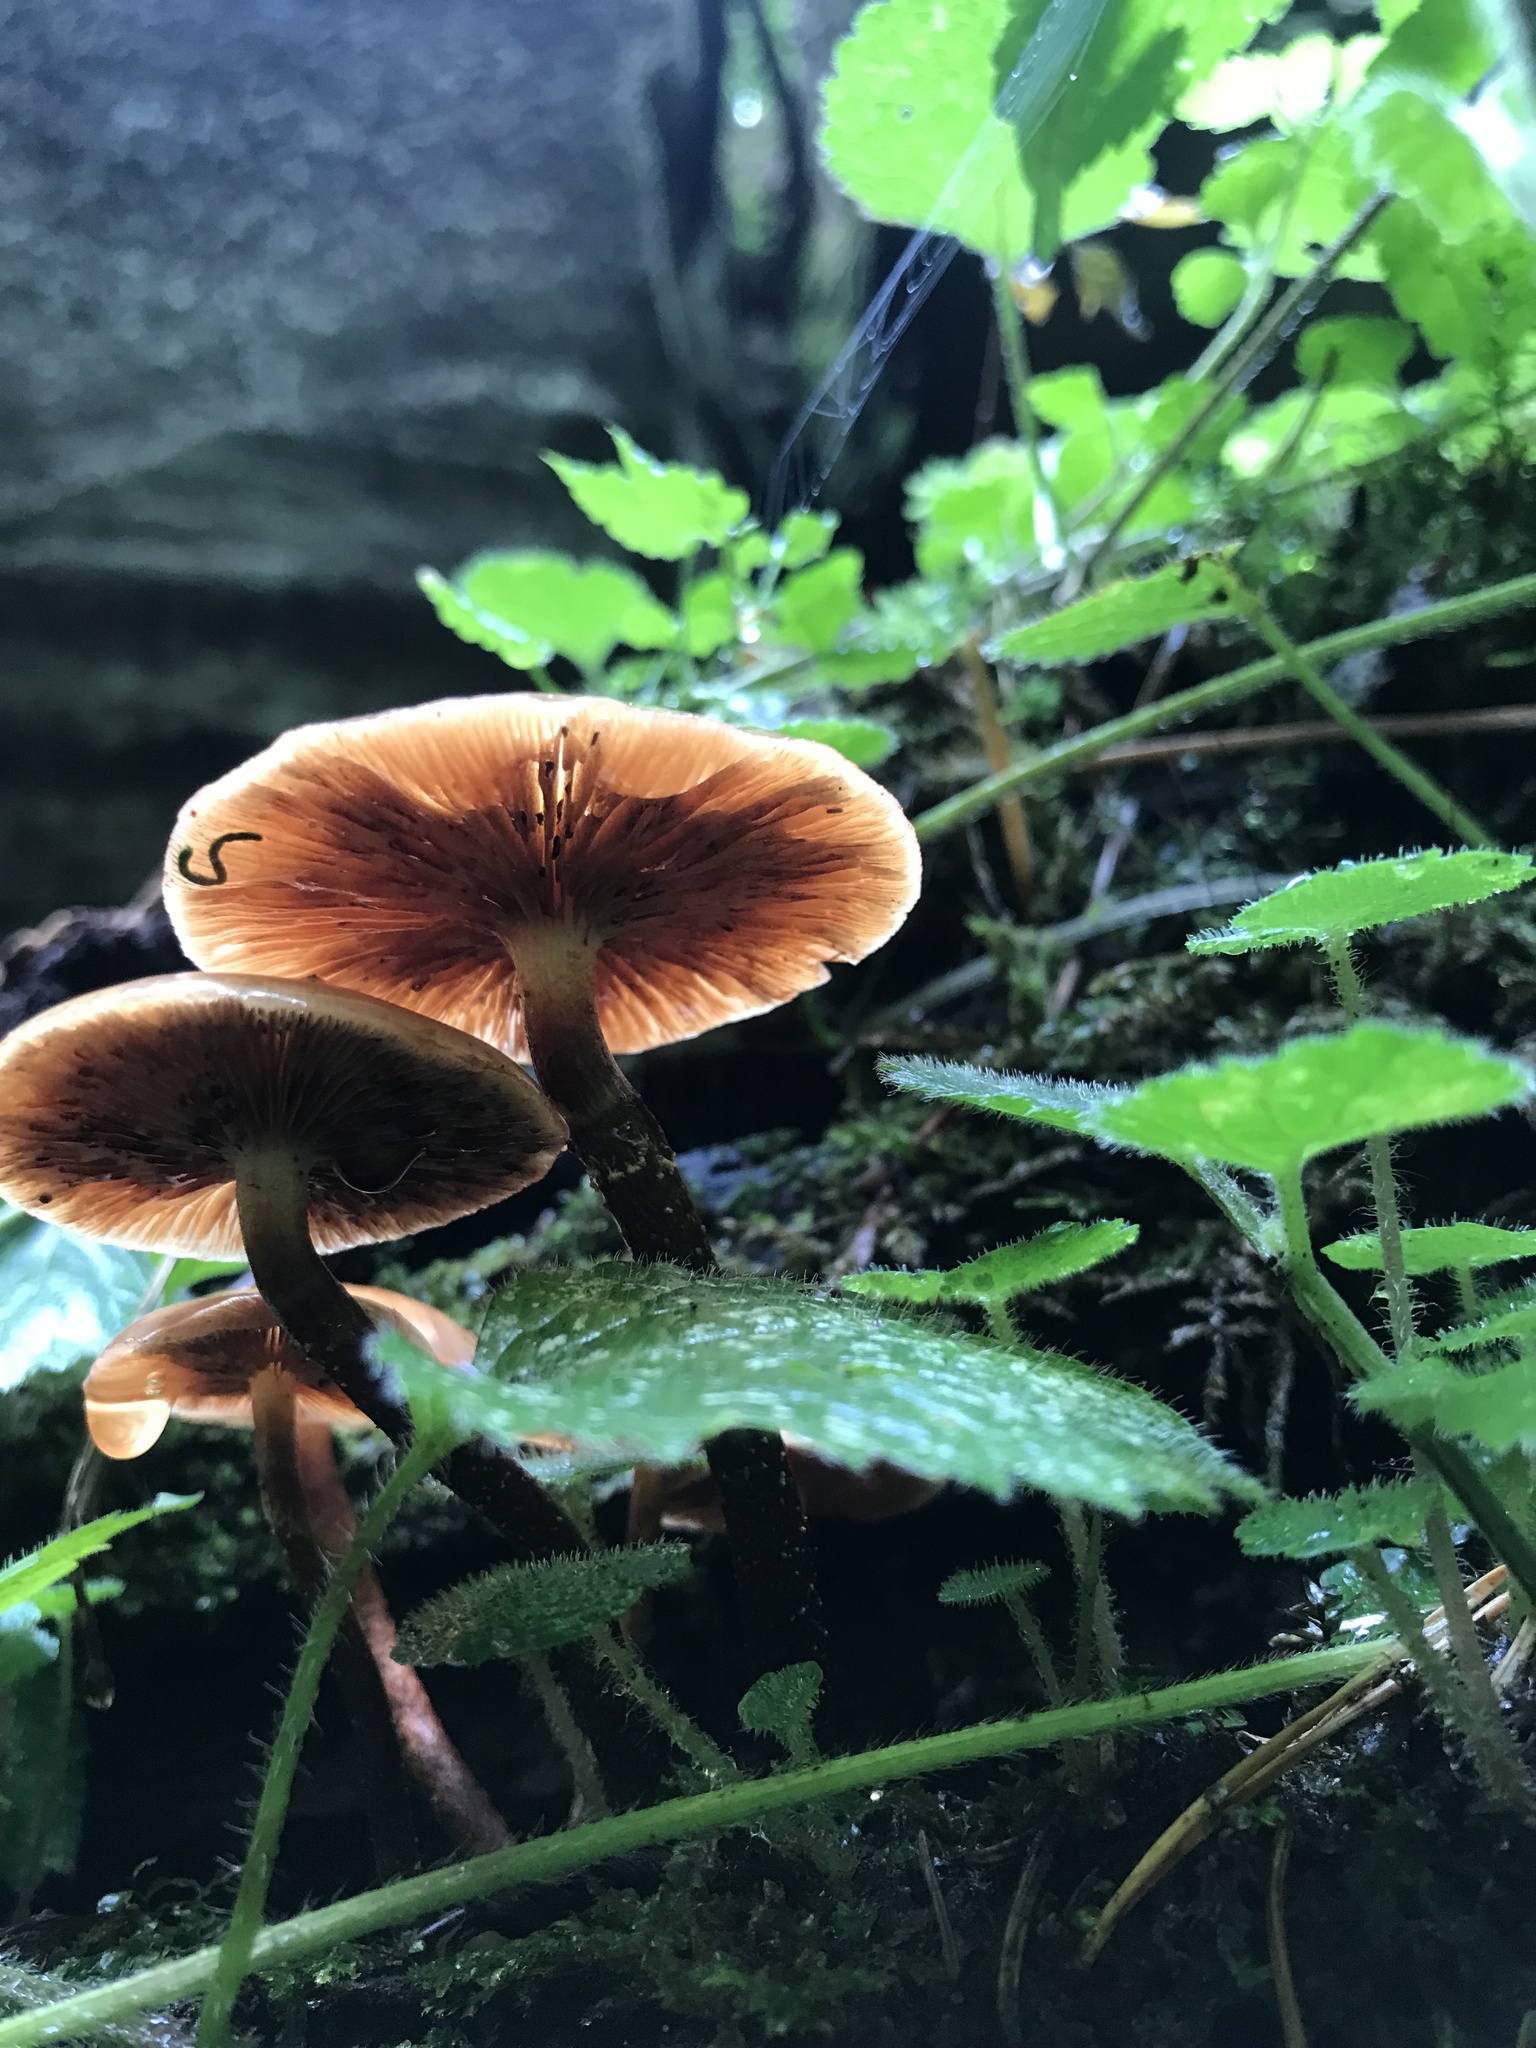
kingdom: Fungi
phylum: Basidiomycota
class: Agaricomycetes
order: Agaricales
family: Strophariaceae
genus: Kuehneromyces
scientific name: Kuehneromyces mutabilis
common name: Sheathed woodtuft
